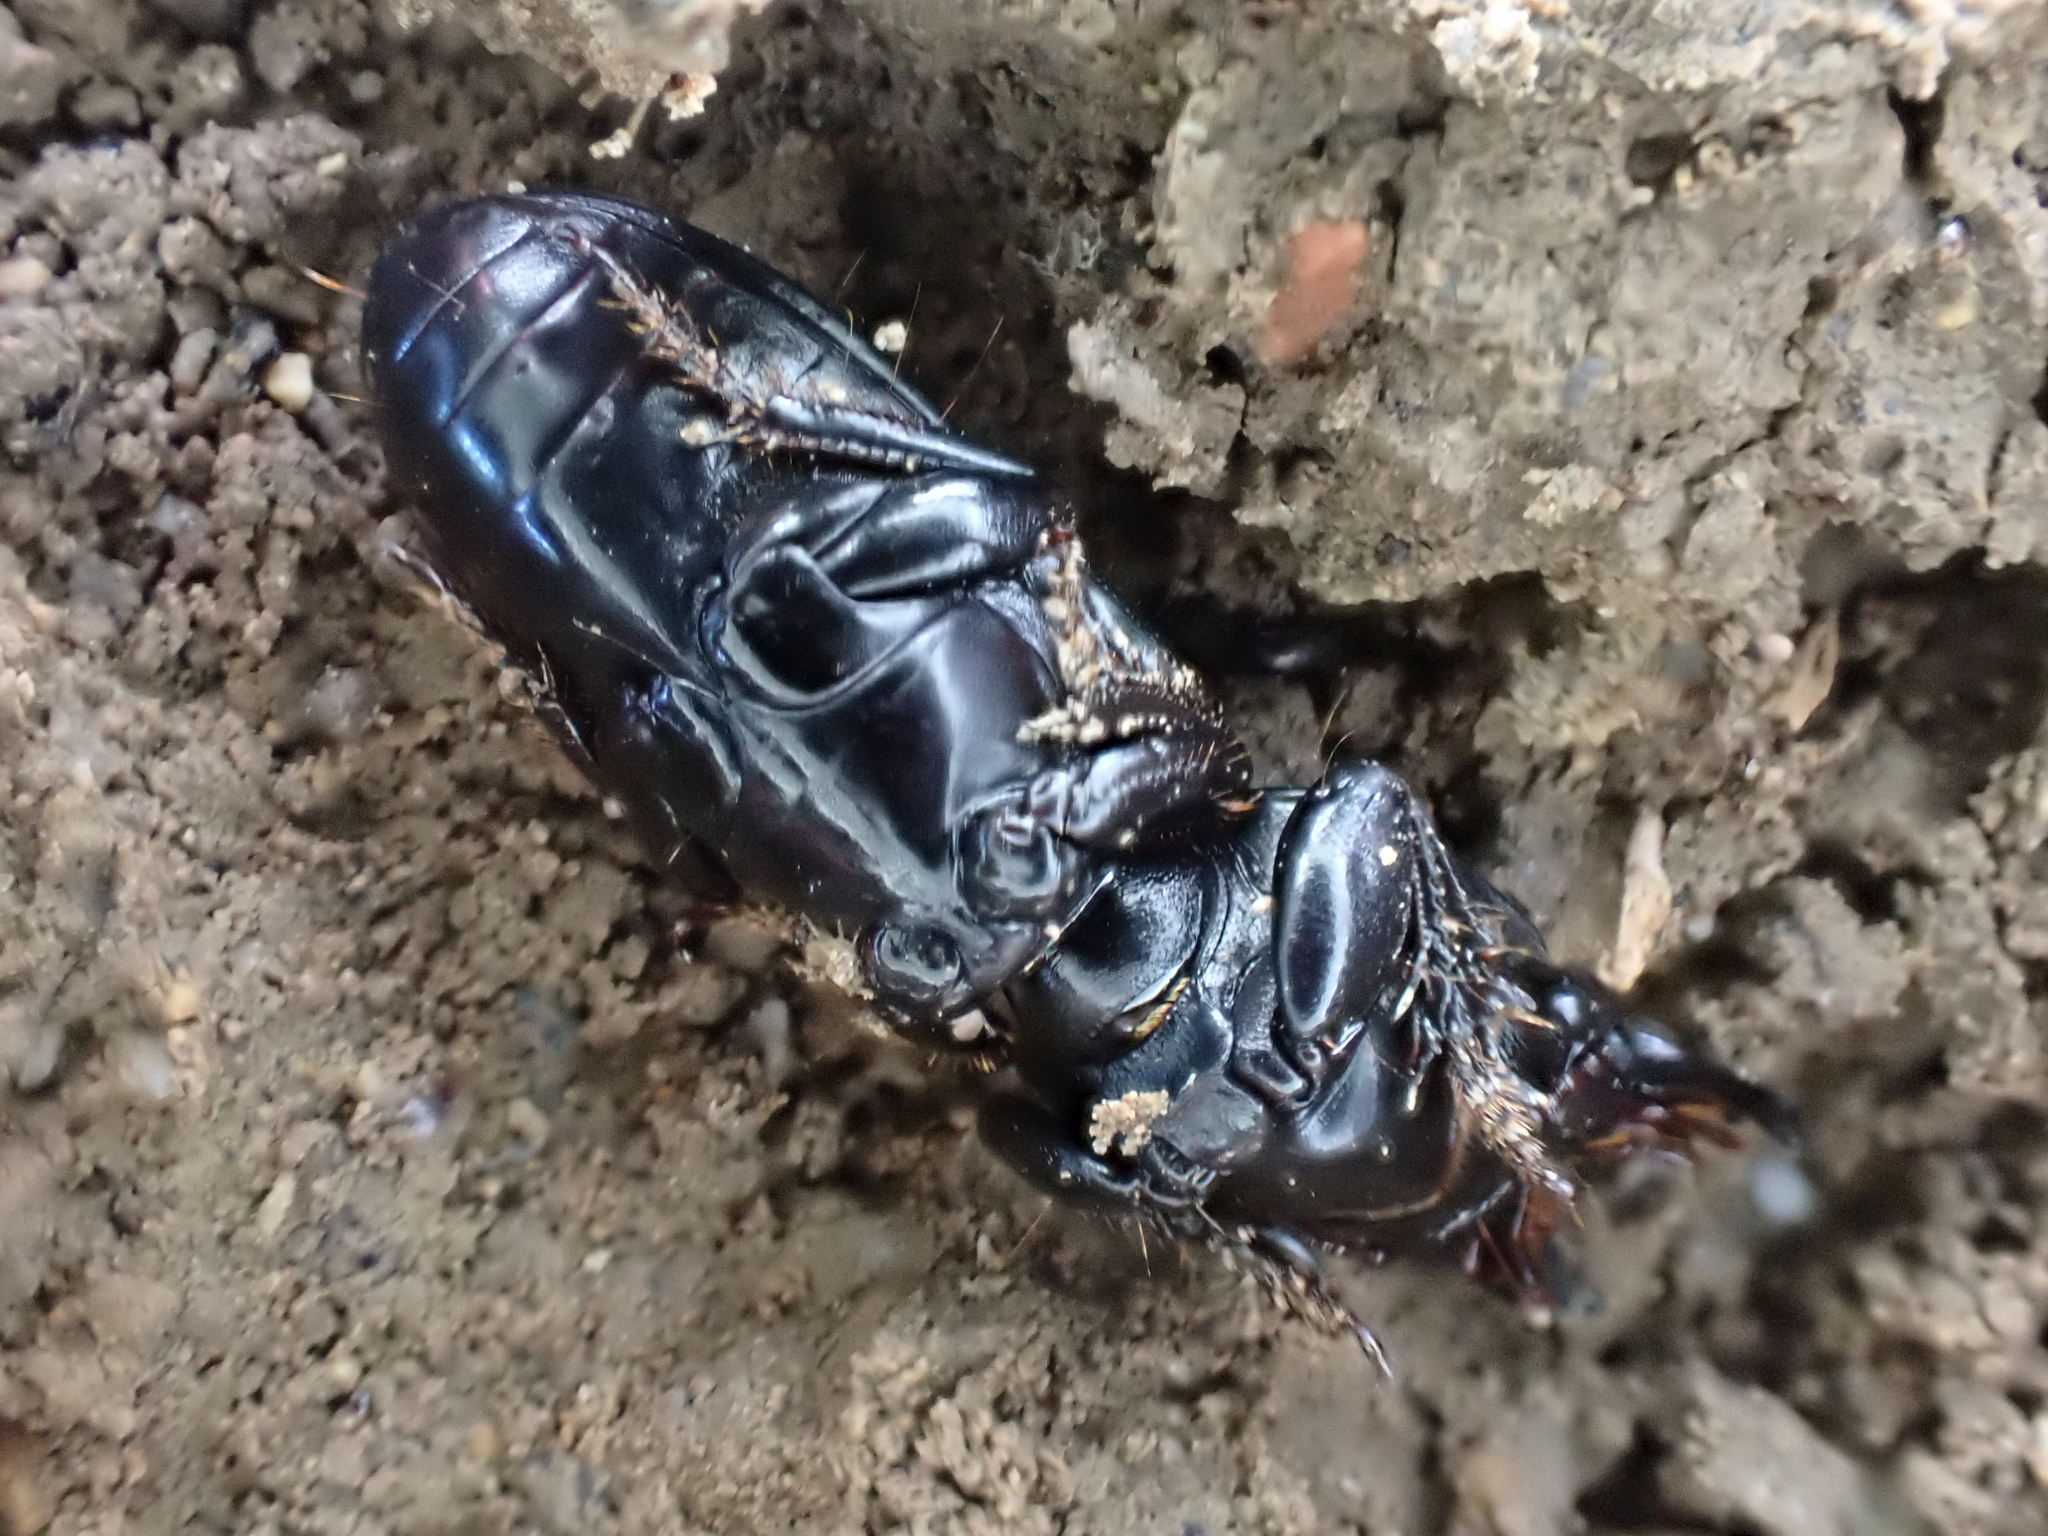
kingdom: Animalia
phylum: Arthropoda
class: Insecta
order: Coleoptera
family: Carabidae
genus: Scarites
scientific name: Scarites subterraneus
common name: Big-headed ground beetle
